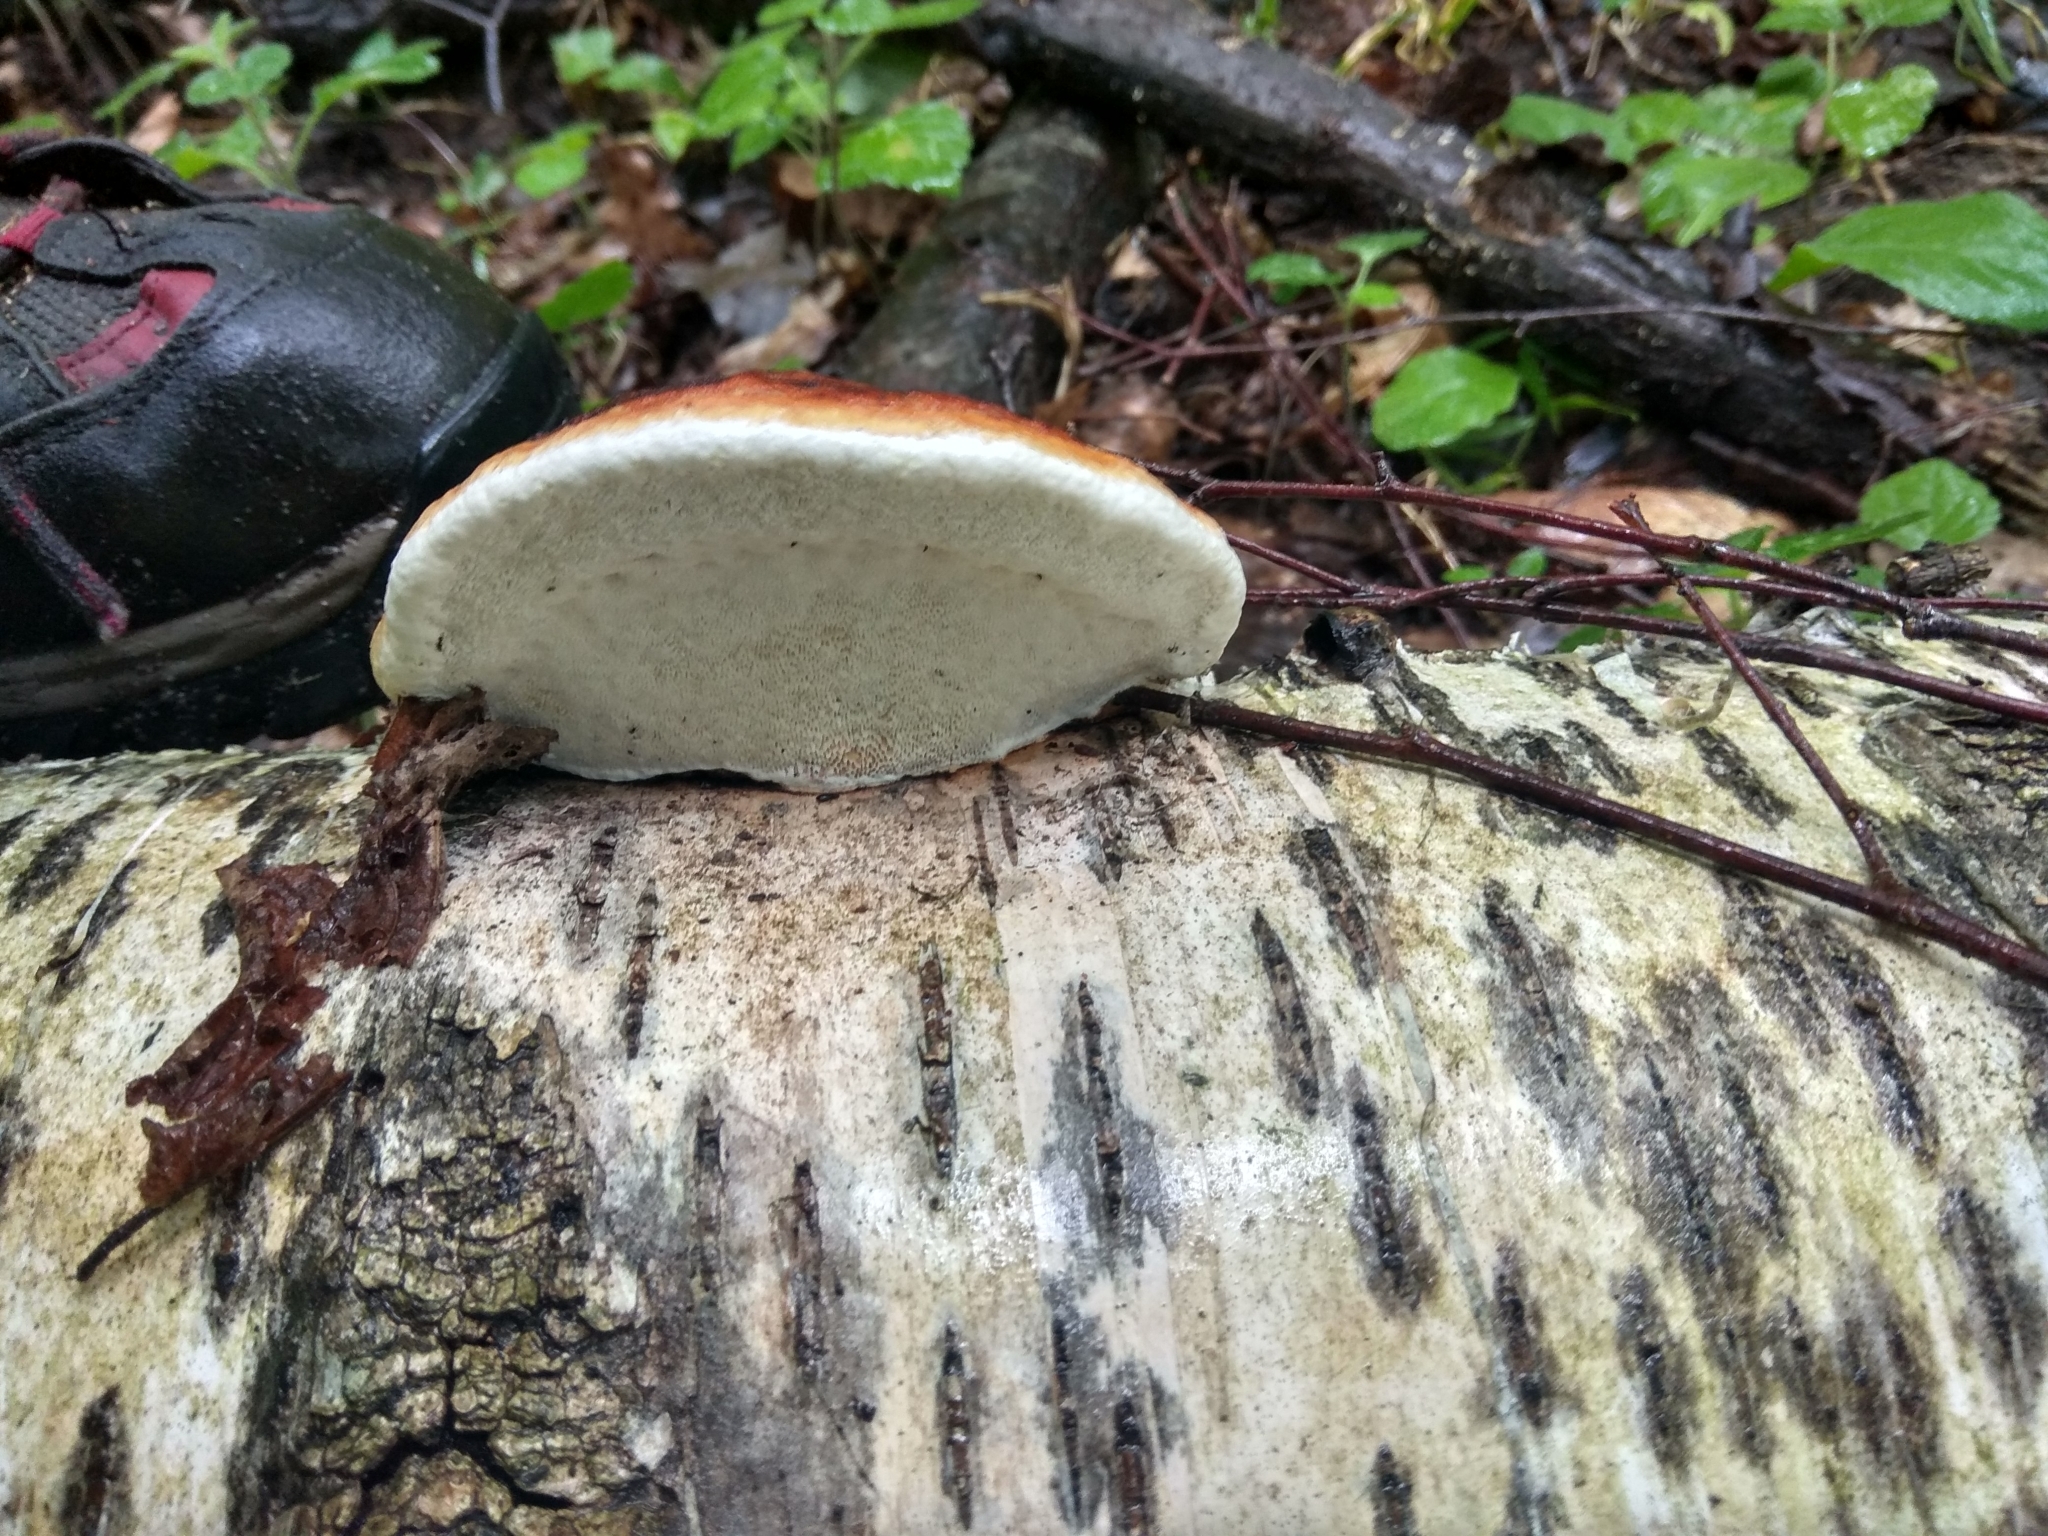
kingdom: Fungi
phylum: Basidiomycota
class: Agaricomycetes
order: Polyporales
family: Fomitopsidaceae
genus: Fomitopsis
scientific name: Fomitopsis pinicola
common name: Red-belted bracket
